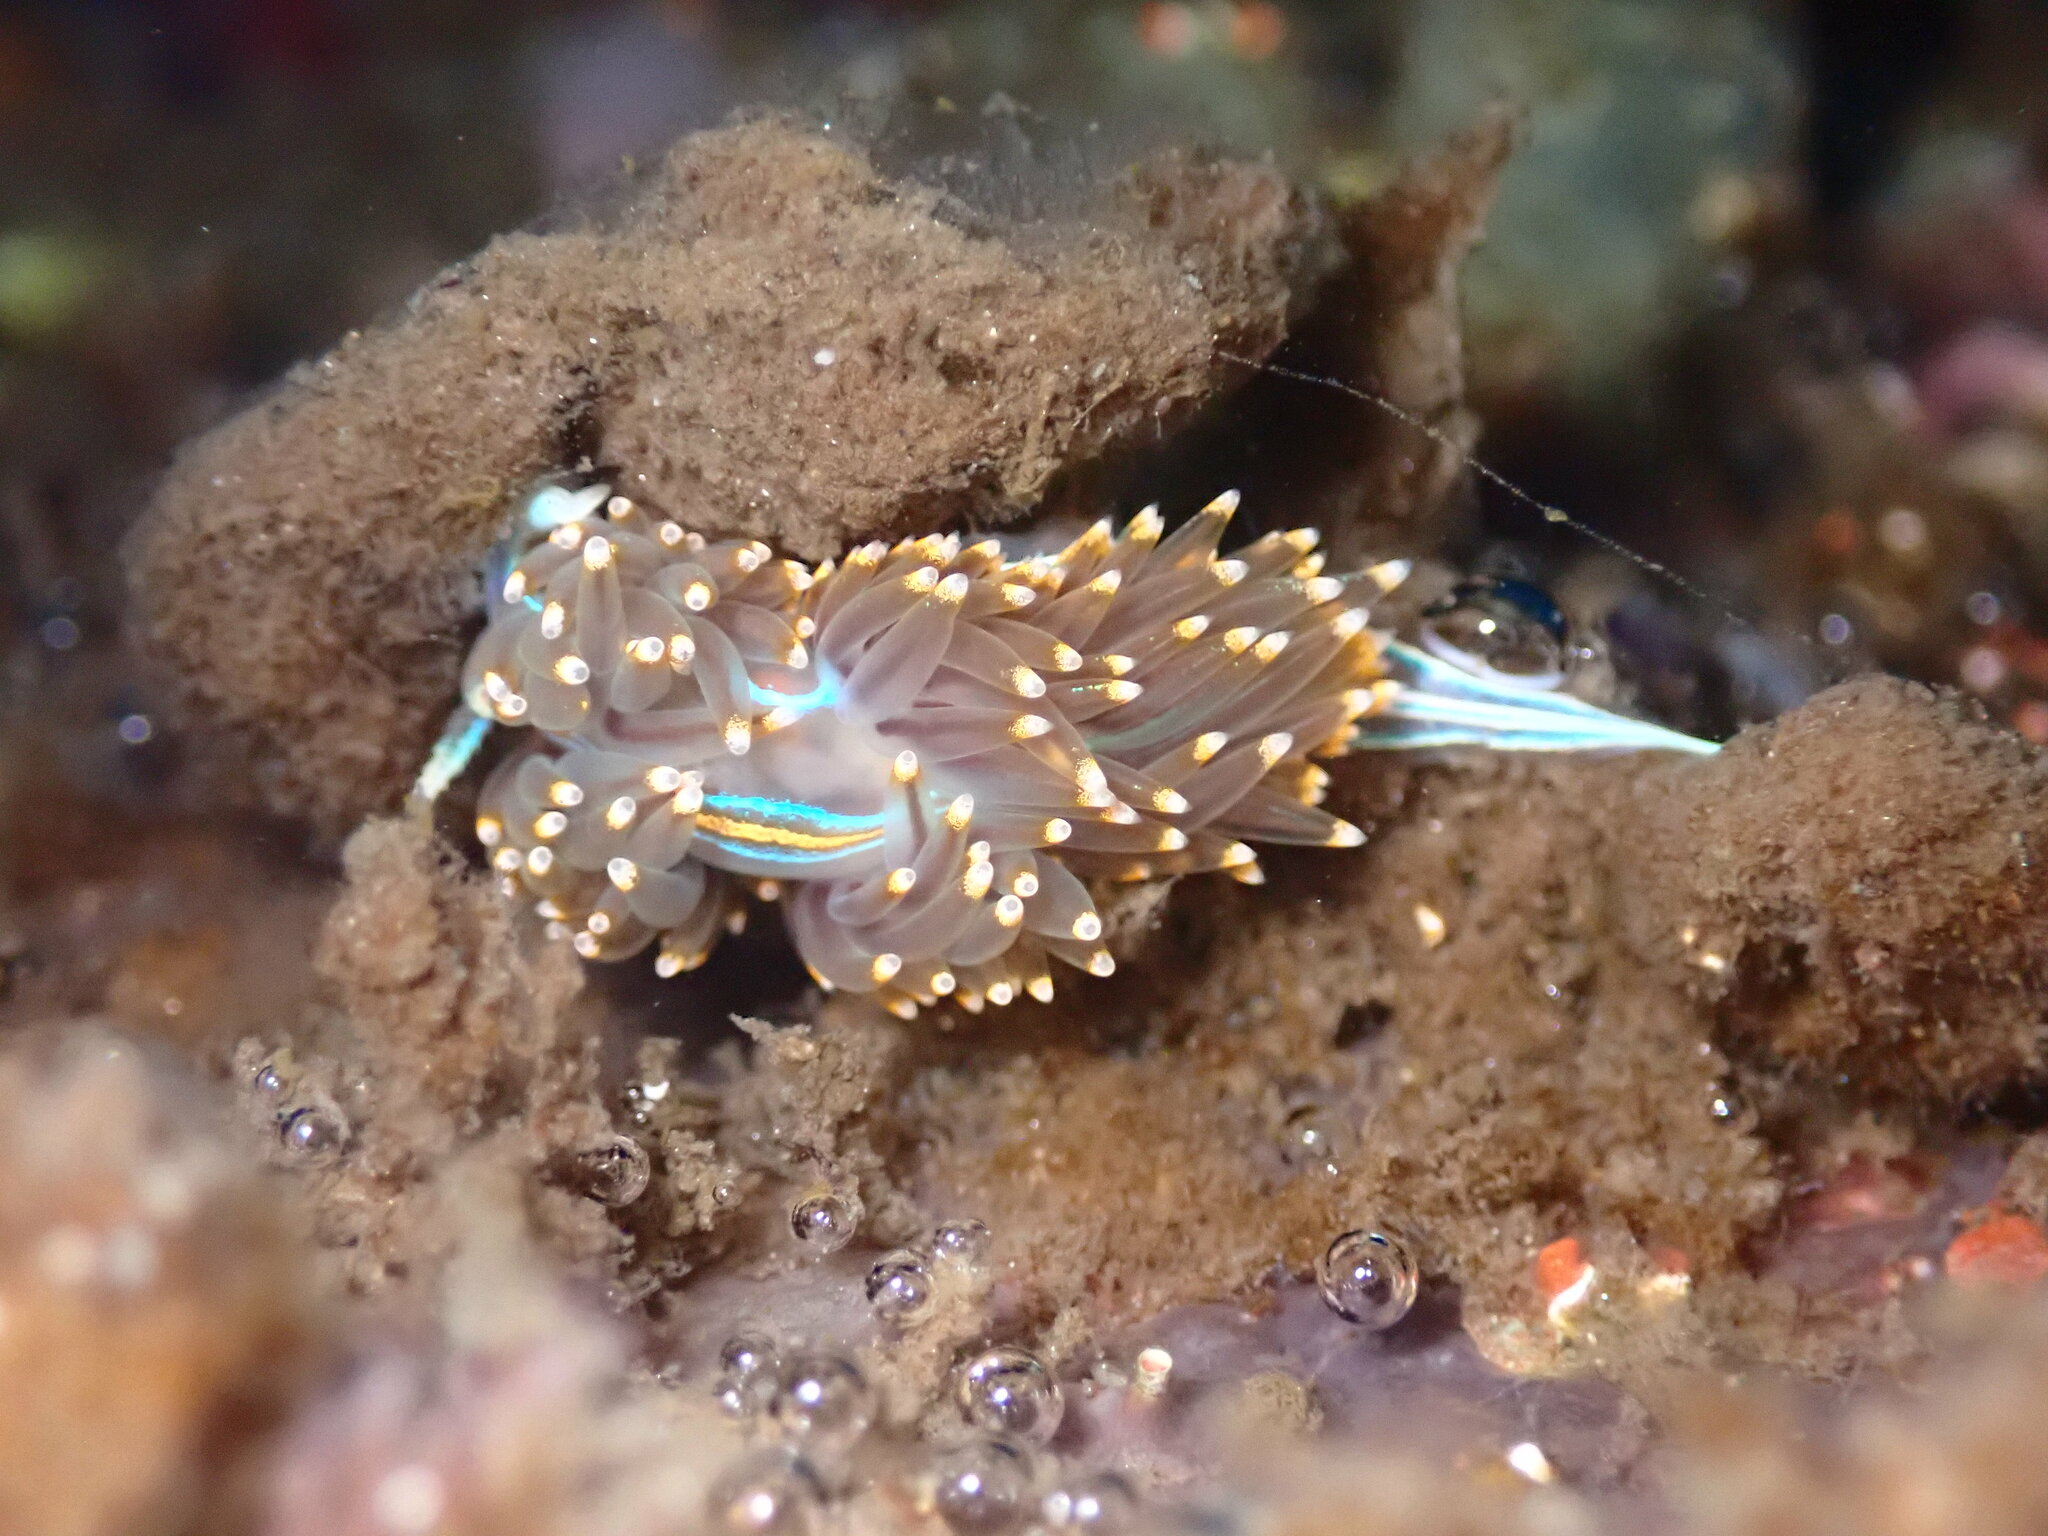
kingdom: Animalia
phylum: Mollusca
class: Gastropoda
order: Nudibranchia
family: Myrrhinidae
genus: Hermissenda
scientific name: Hermissenda opalescens
